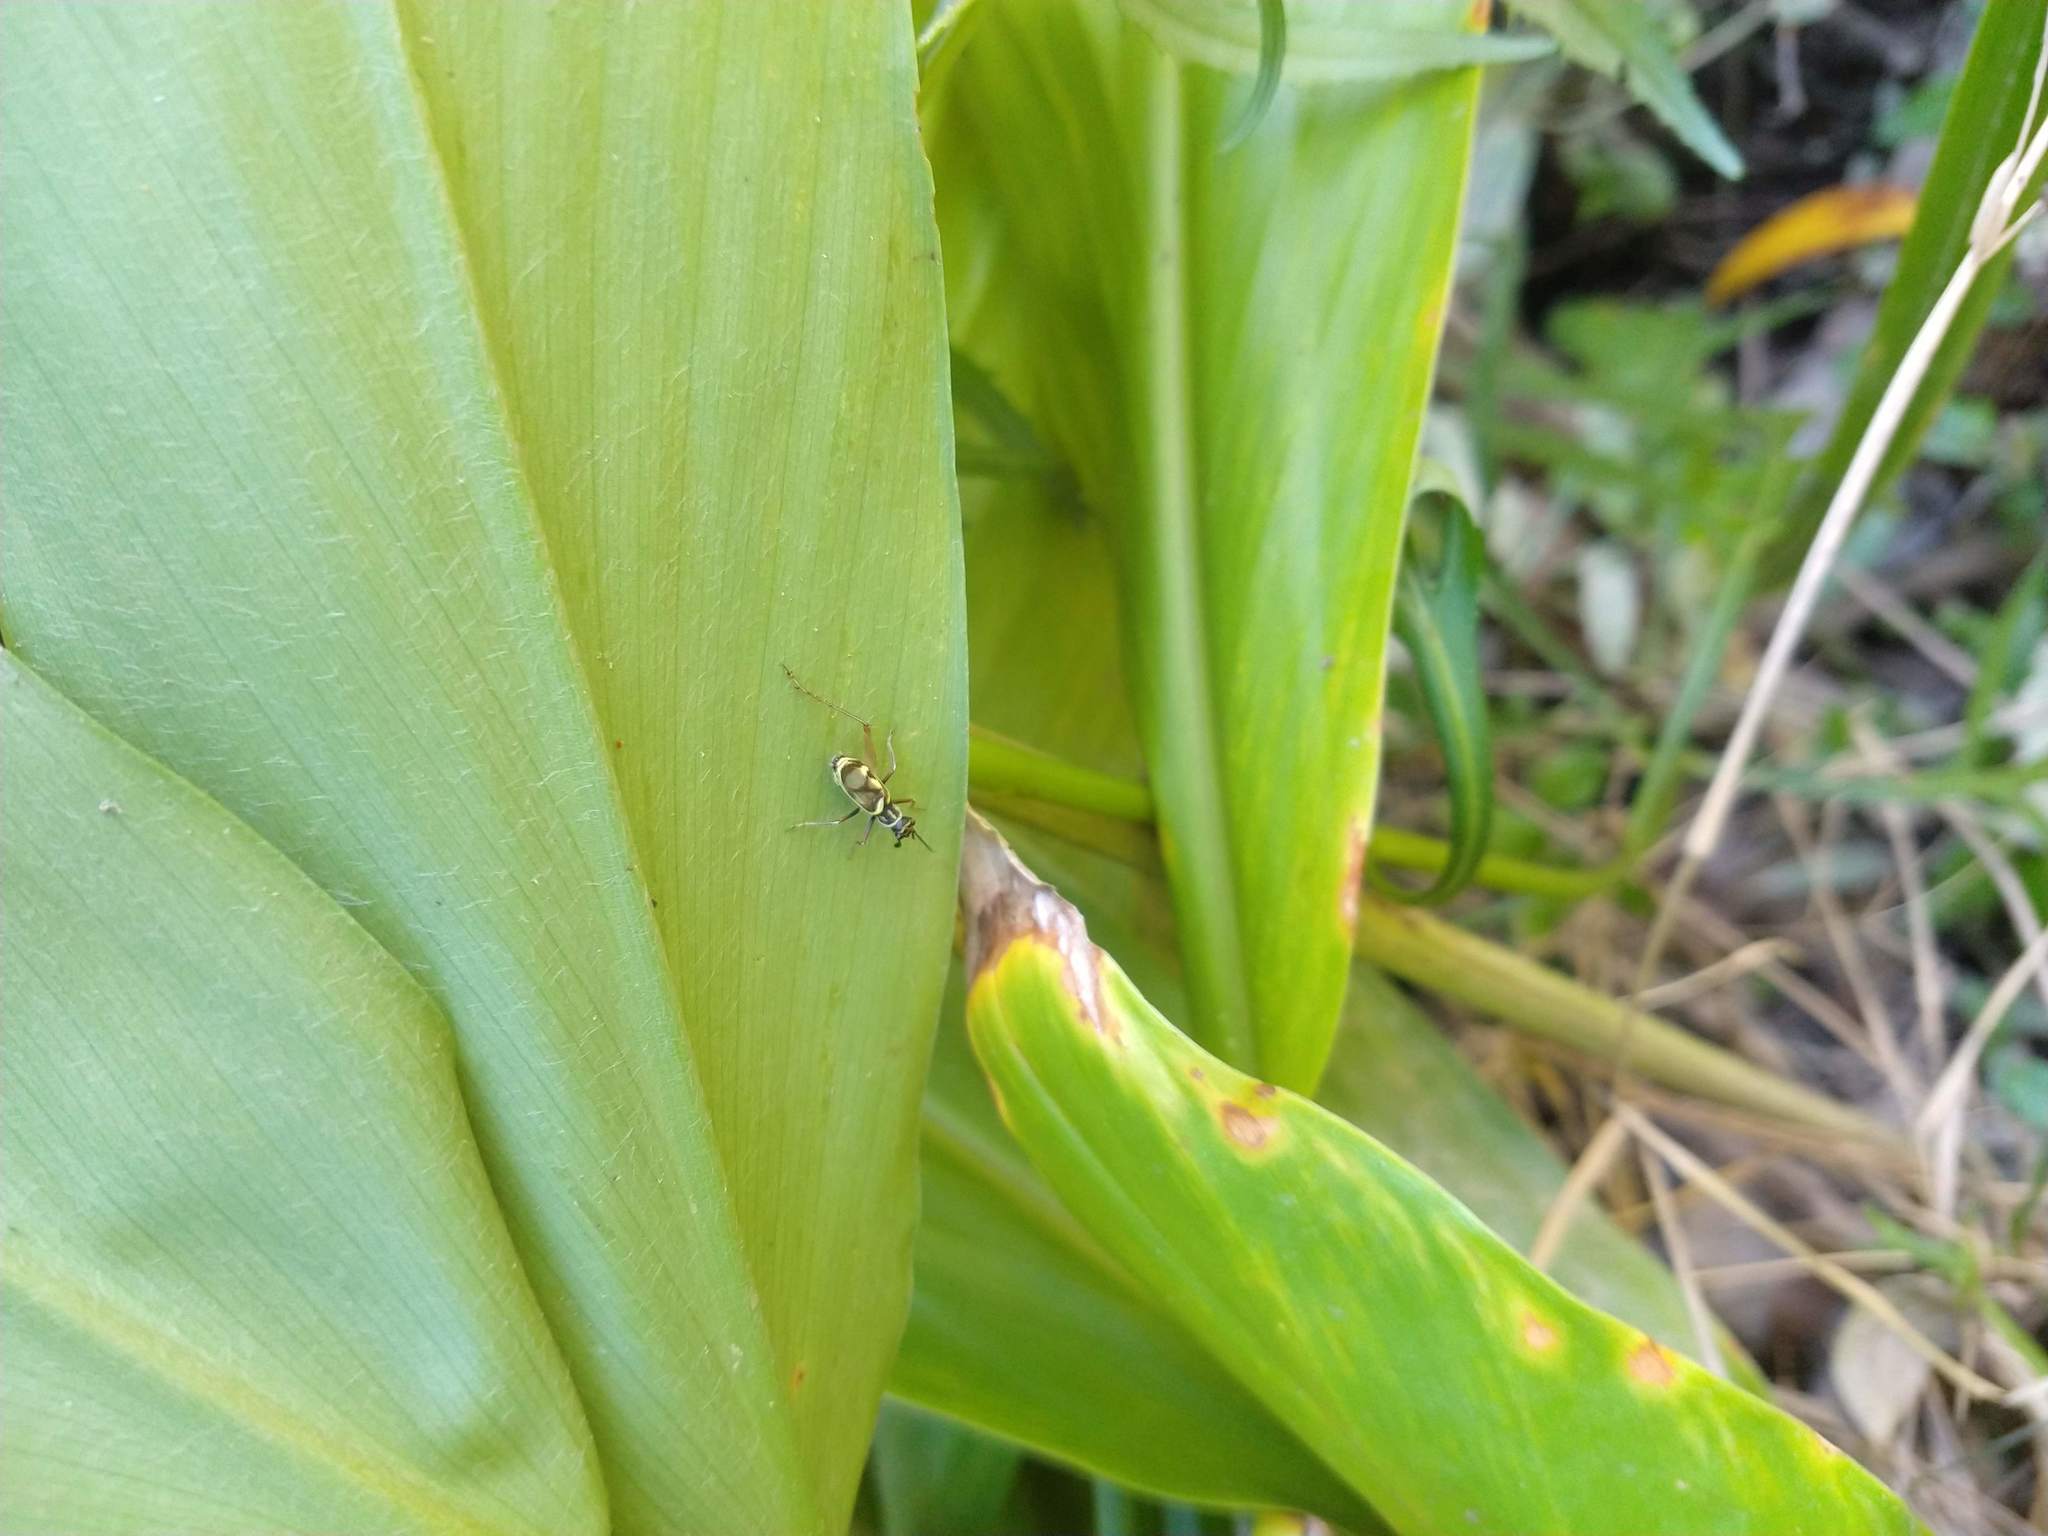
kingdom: Animalia
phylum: Arthropoda
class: Insecta
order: Orthoptera
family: Trigonidiidae
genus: Phylloscyrtus
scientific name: Phylloscyrtus amoenus
